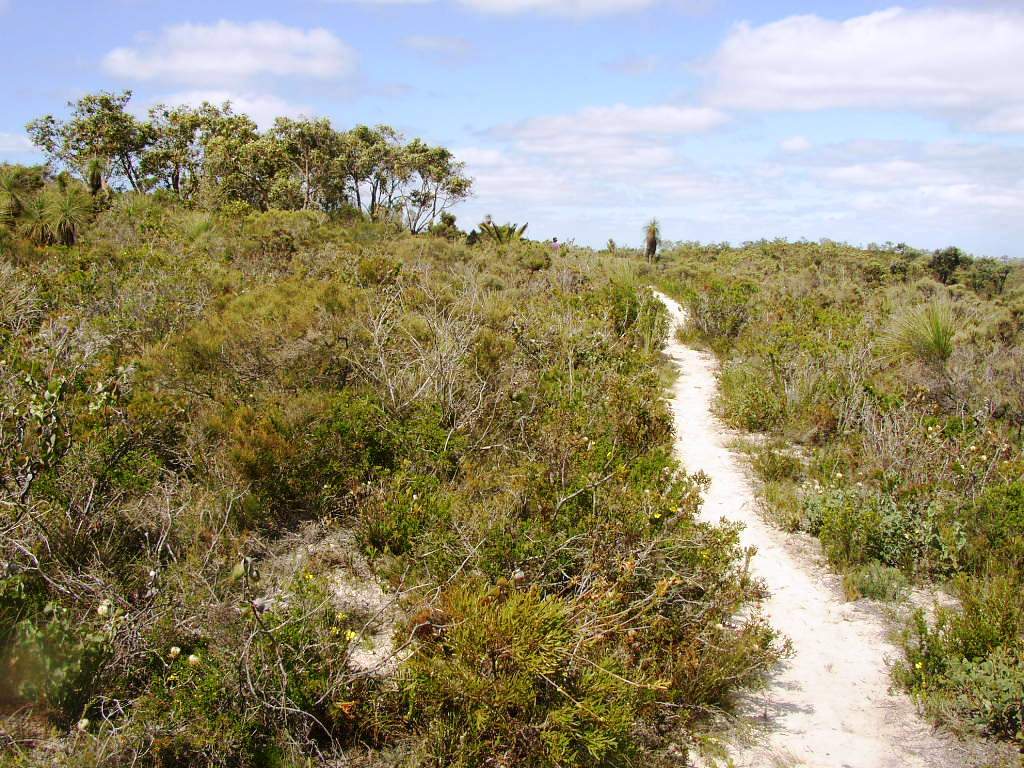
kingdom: Plantae
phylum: Tracheophyta
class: Magnoliopsida
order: Proteales
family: Proteaceae
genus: Isopogon
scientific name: Isopogon sphaerocephalus
